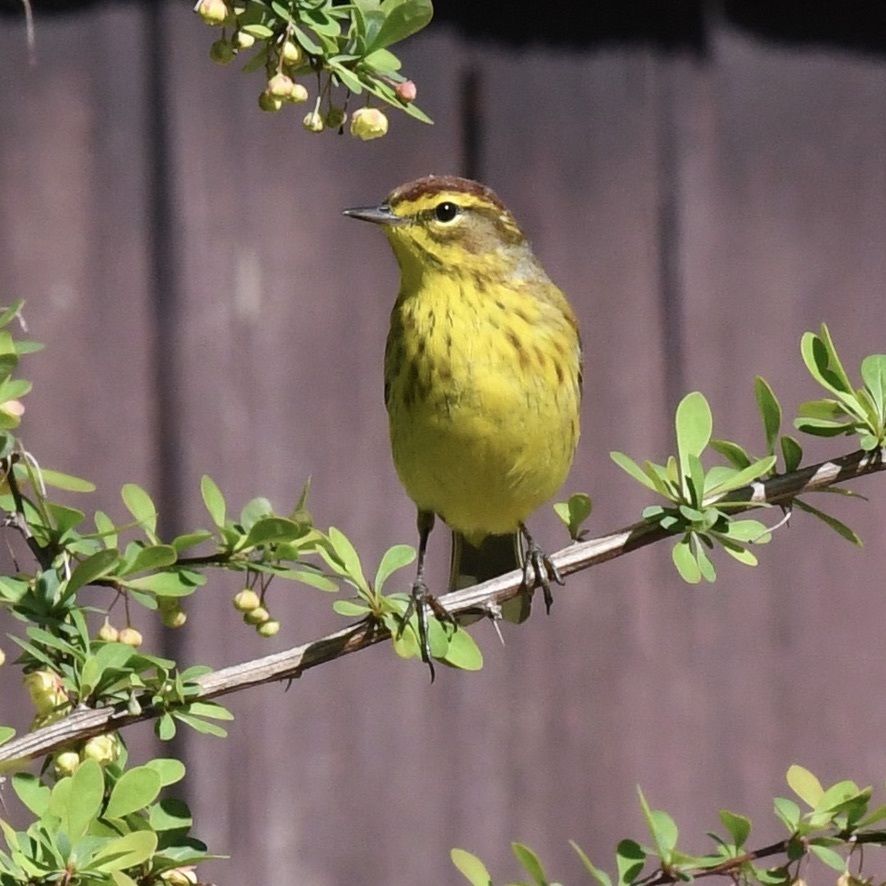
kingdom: Animalia
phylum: Chordata
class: Aves
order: Passeriformes
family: Parulidae
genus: Setophaga
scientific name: Setophaga palmarum
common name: Palm warbler
